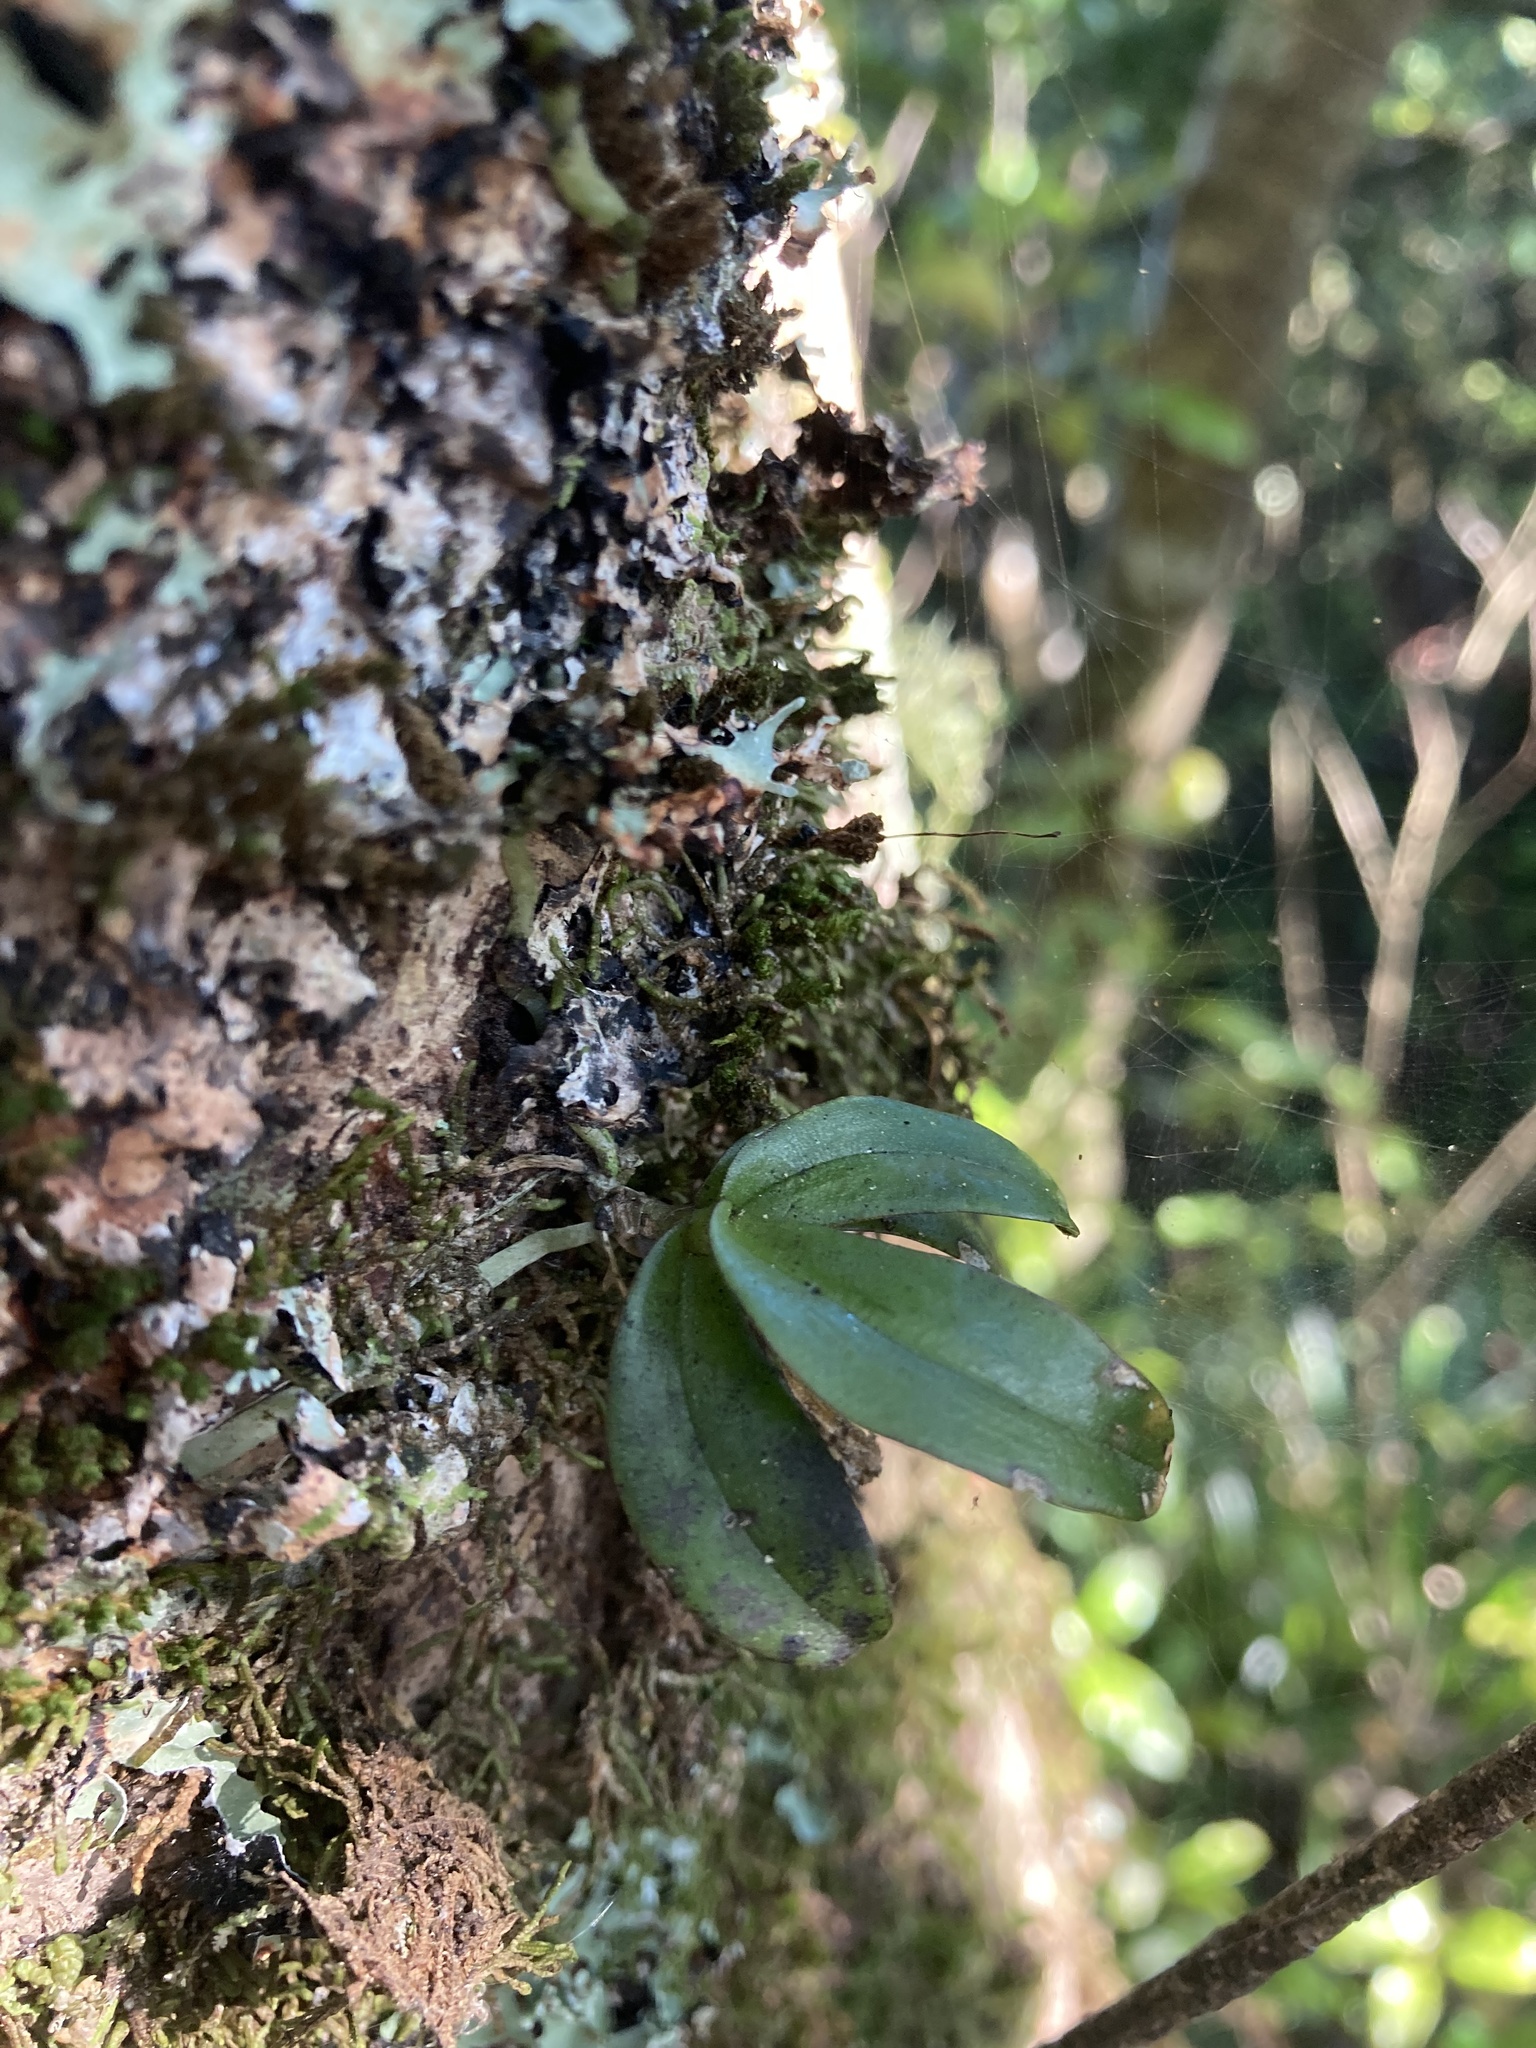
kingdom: Plantae
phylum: Tracheophyta
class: Liliopsida
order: Asparagales
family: Orchidaceae
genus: Drymoanthus
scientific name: Drymoanthus adversus
